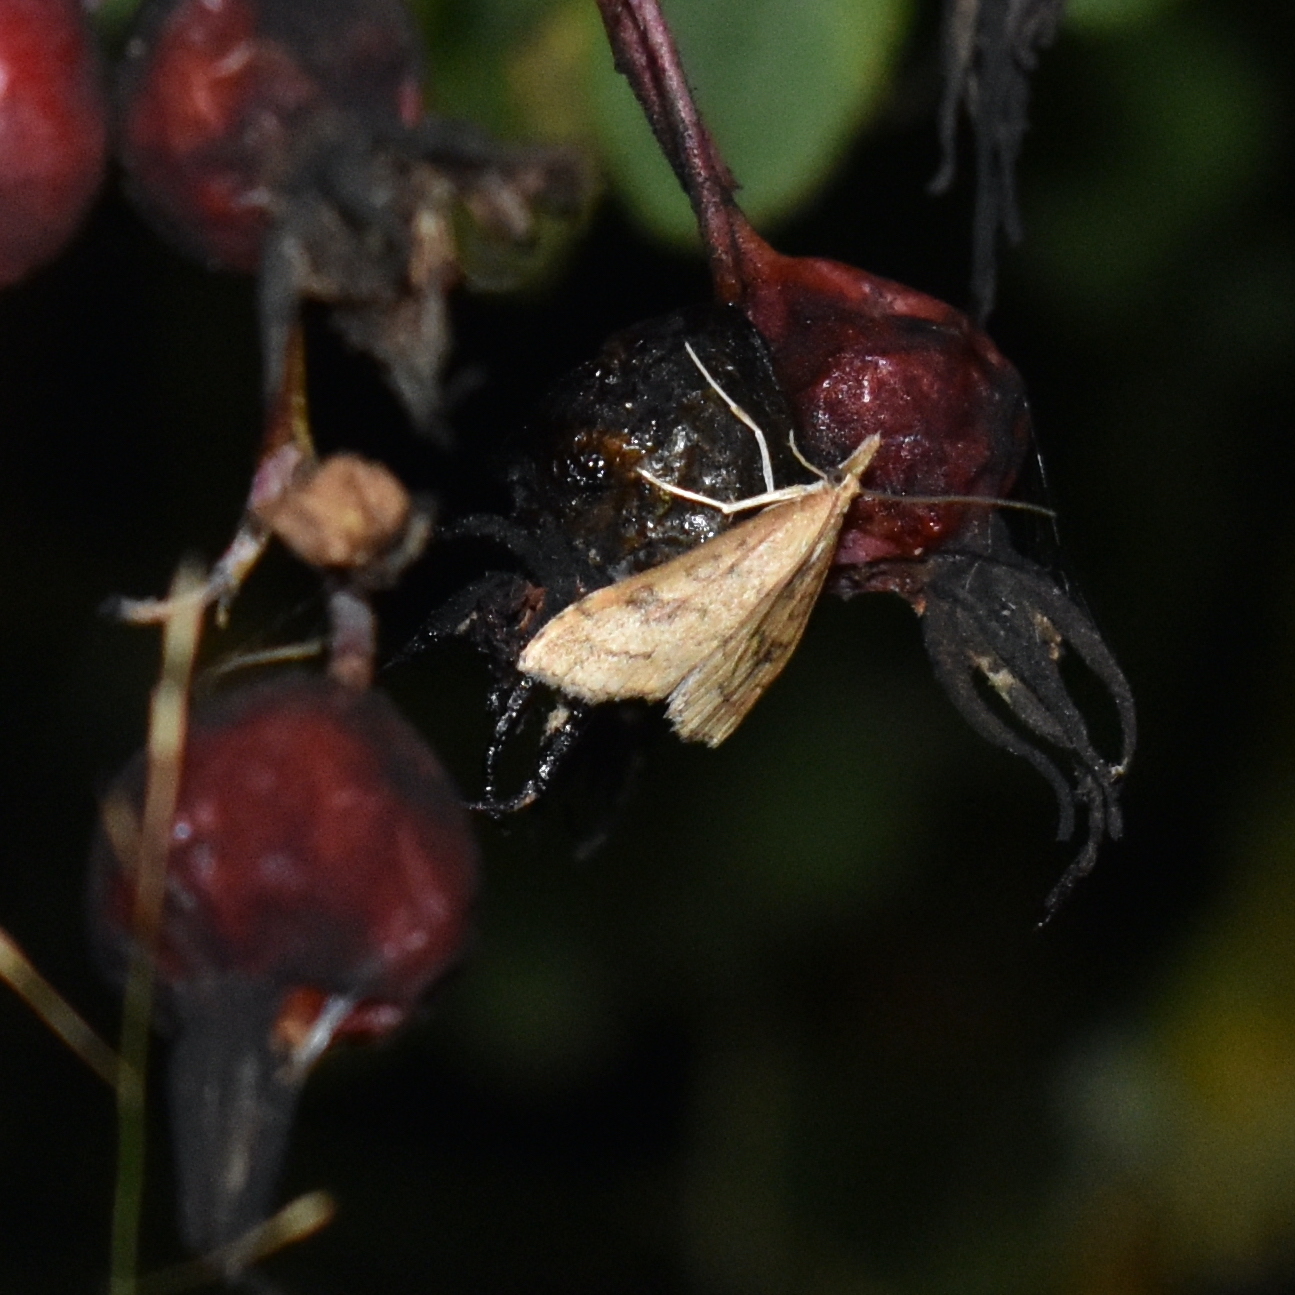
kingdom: Animalia
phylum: Arthropoda
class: Insecta
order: Lepidoptera
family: Crambidae
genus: Udea
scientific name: Udea profundalis
